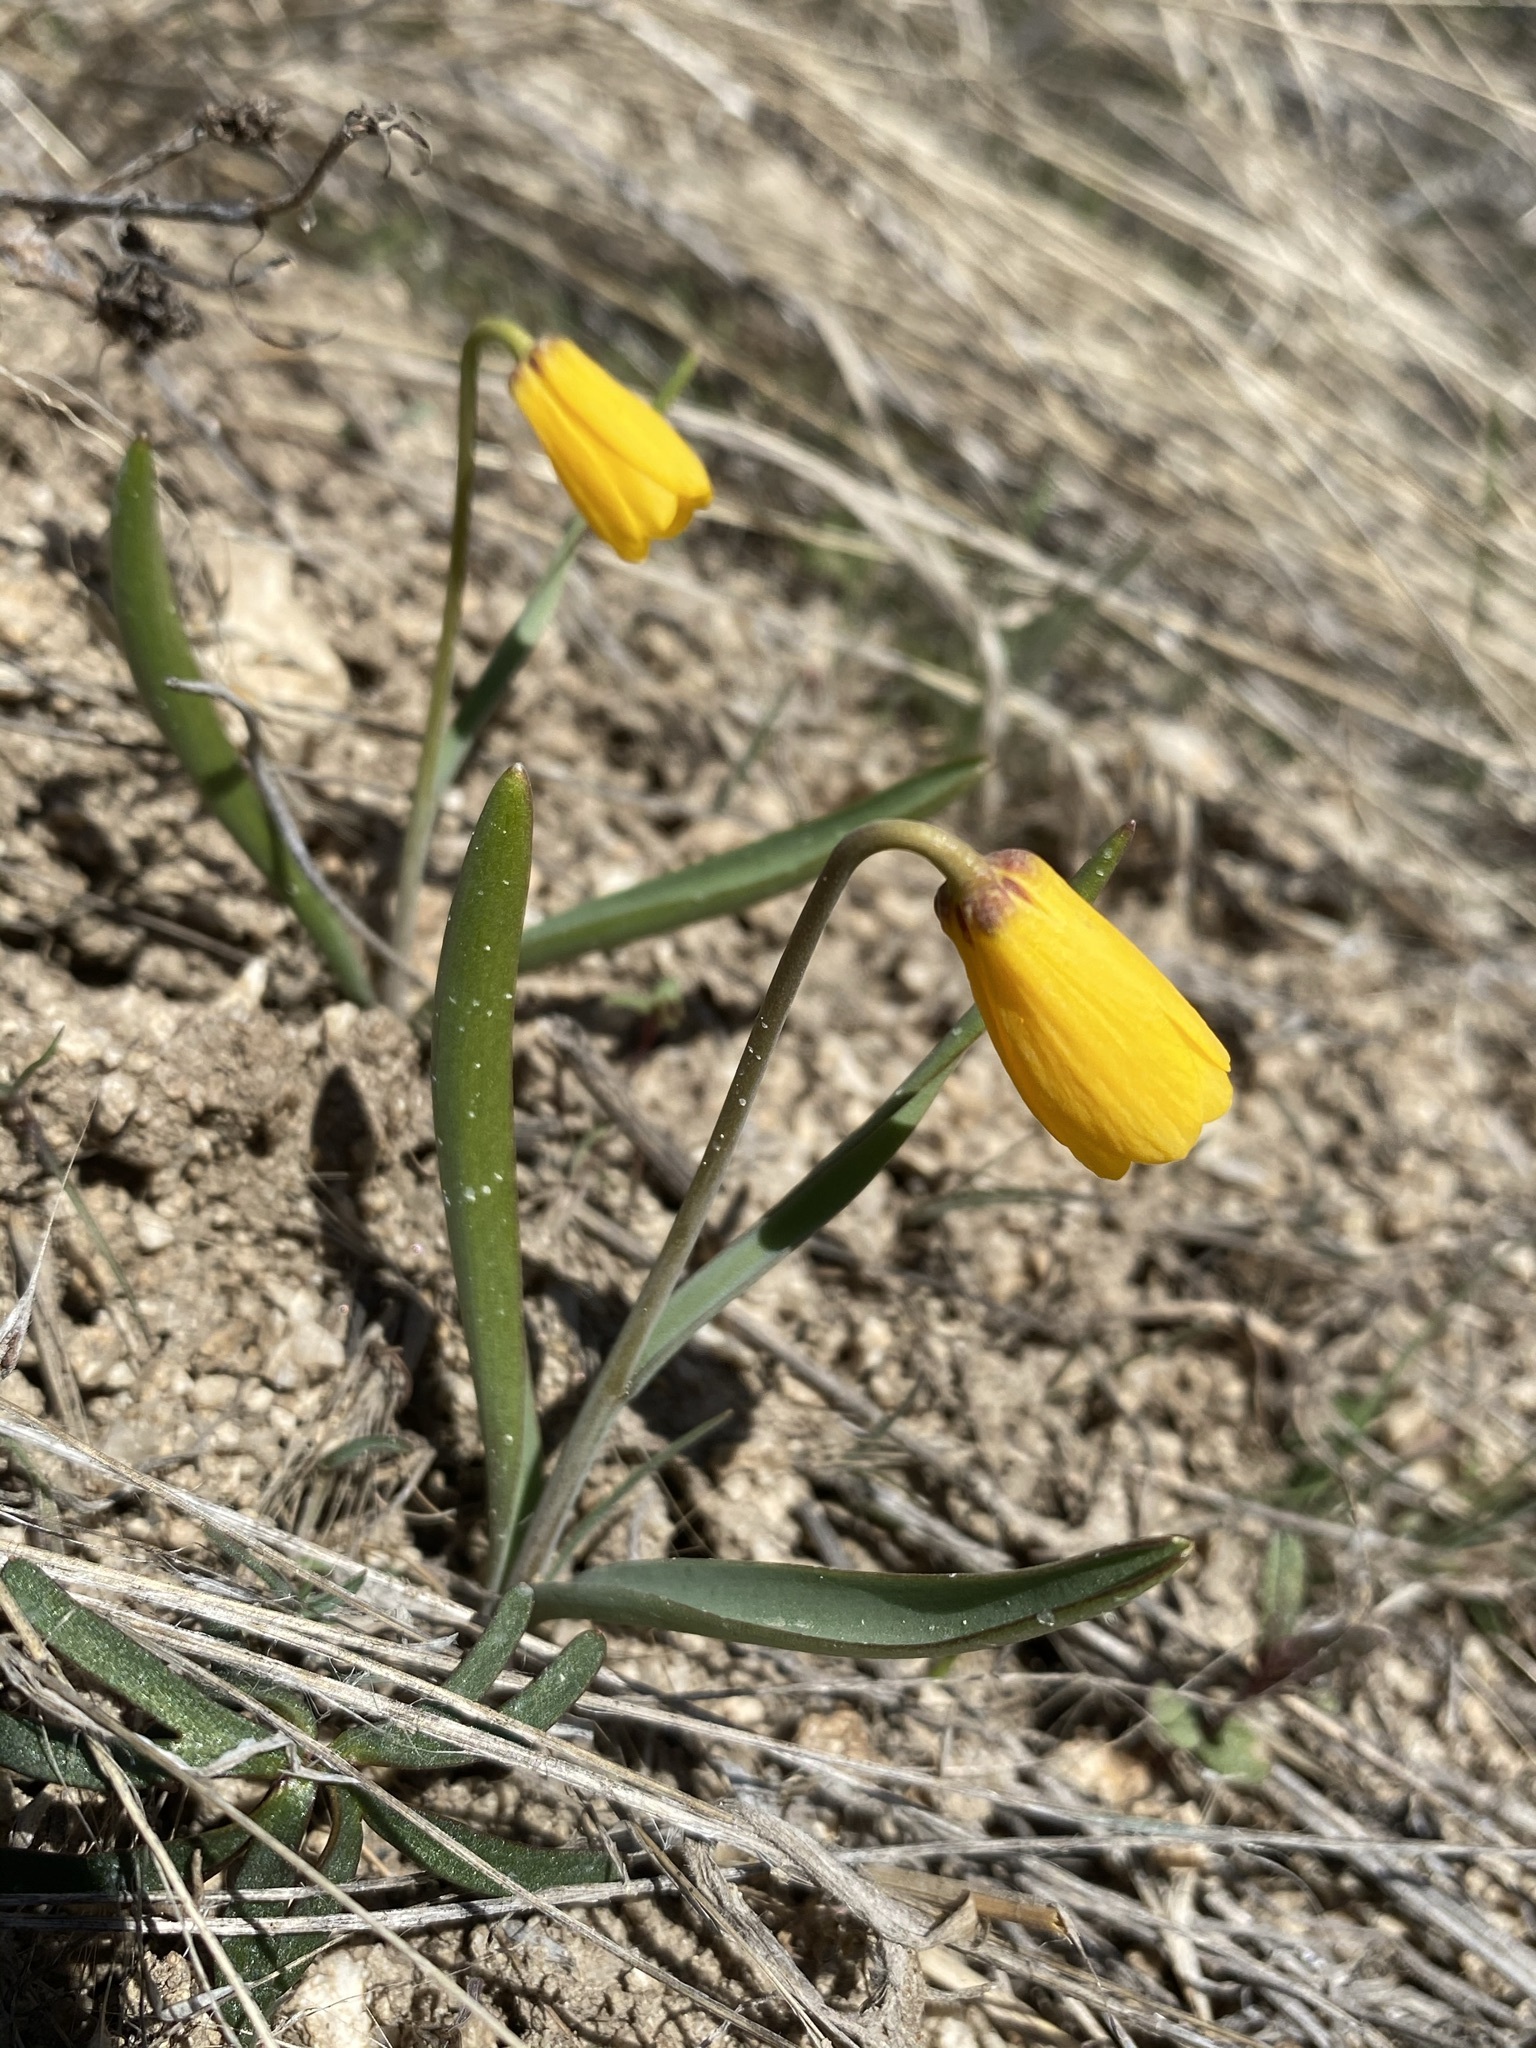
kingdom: Plantae
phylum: Tracheophyta
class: Liliopsida
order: Liliales
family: Liliaceae
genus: Fritillaria
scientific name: Fritillaria pudica
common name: Yellow fritillary
